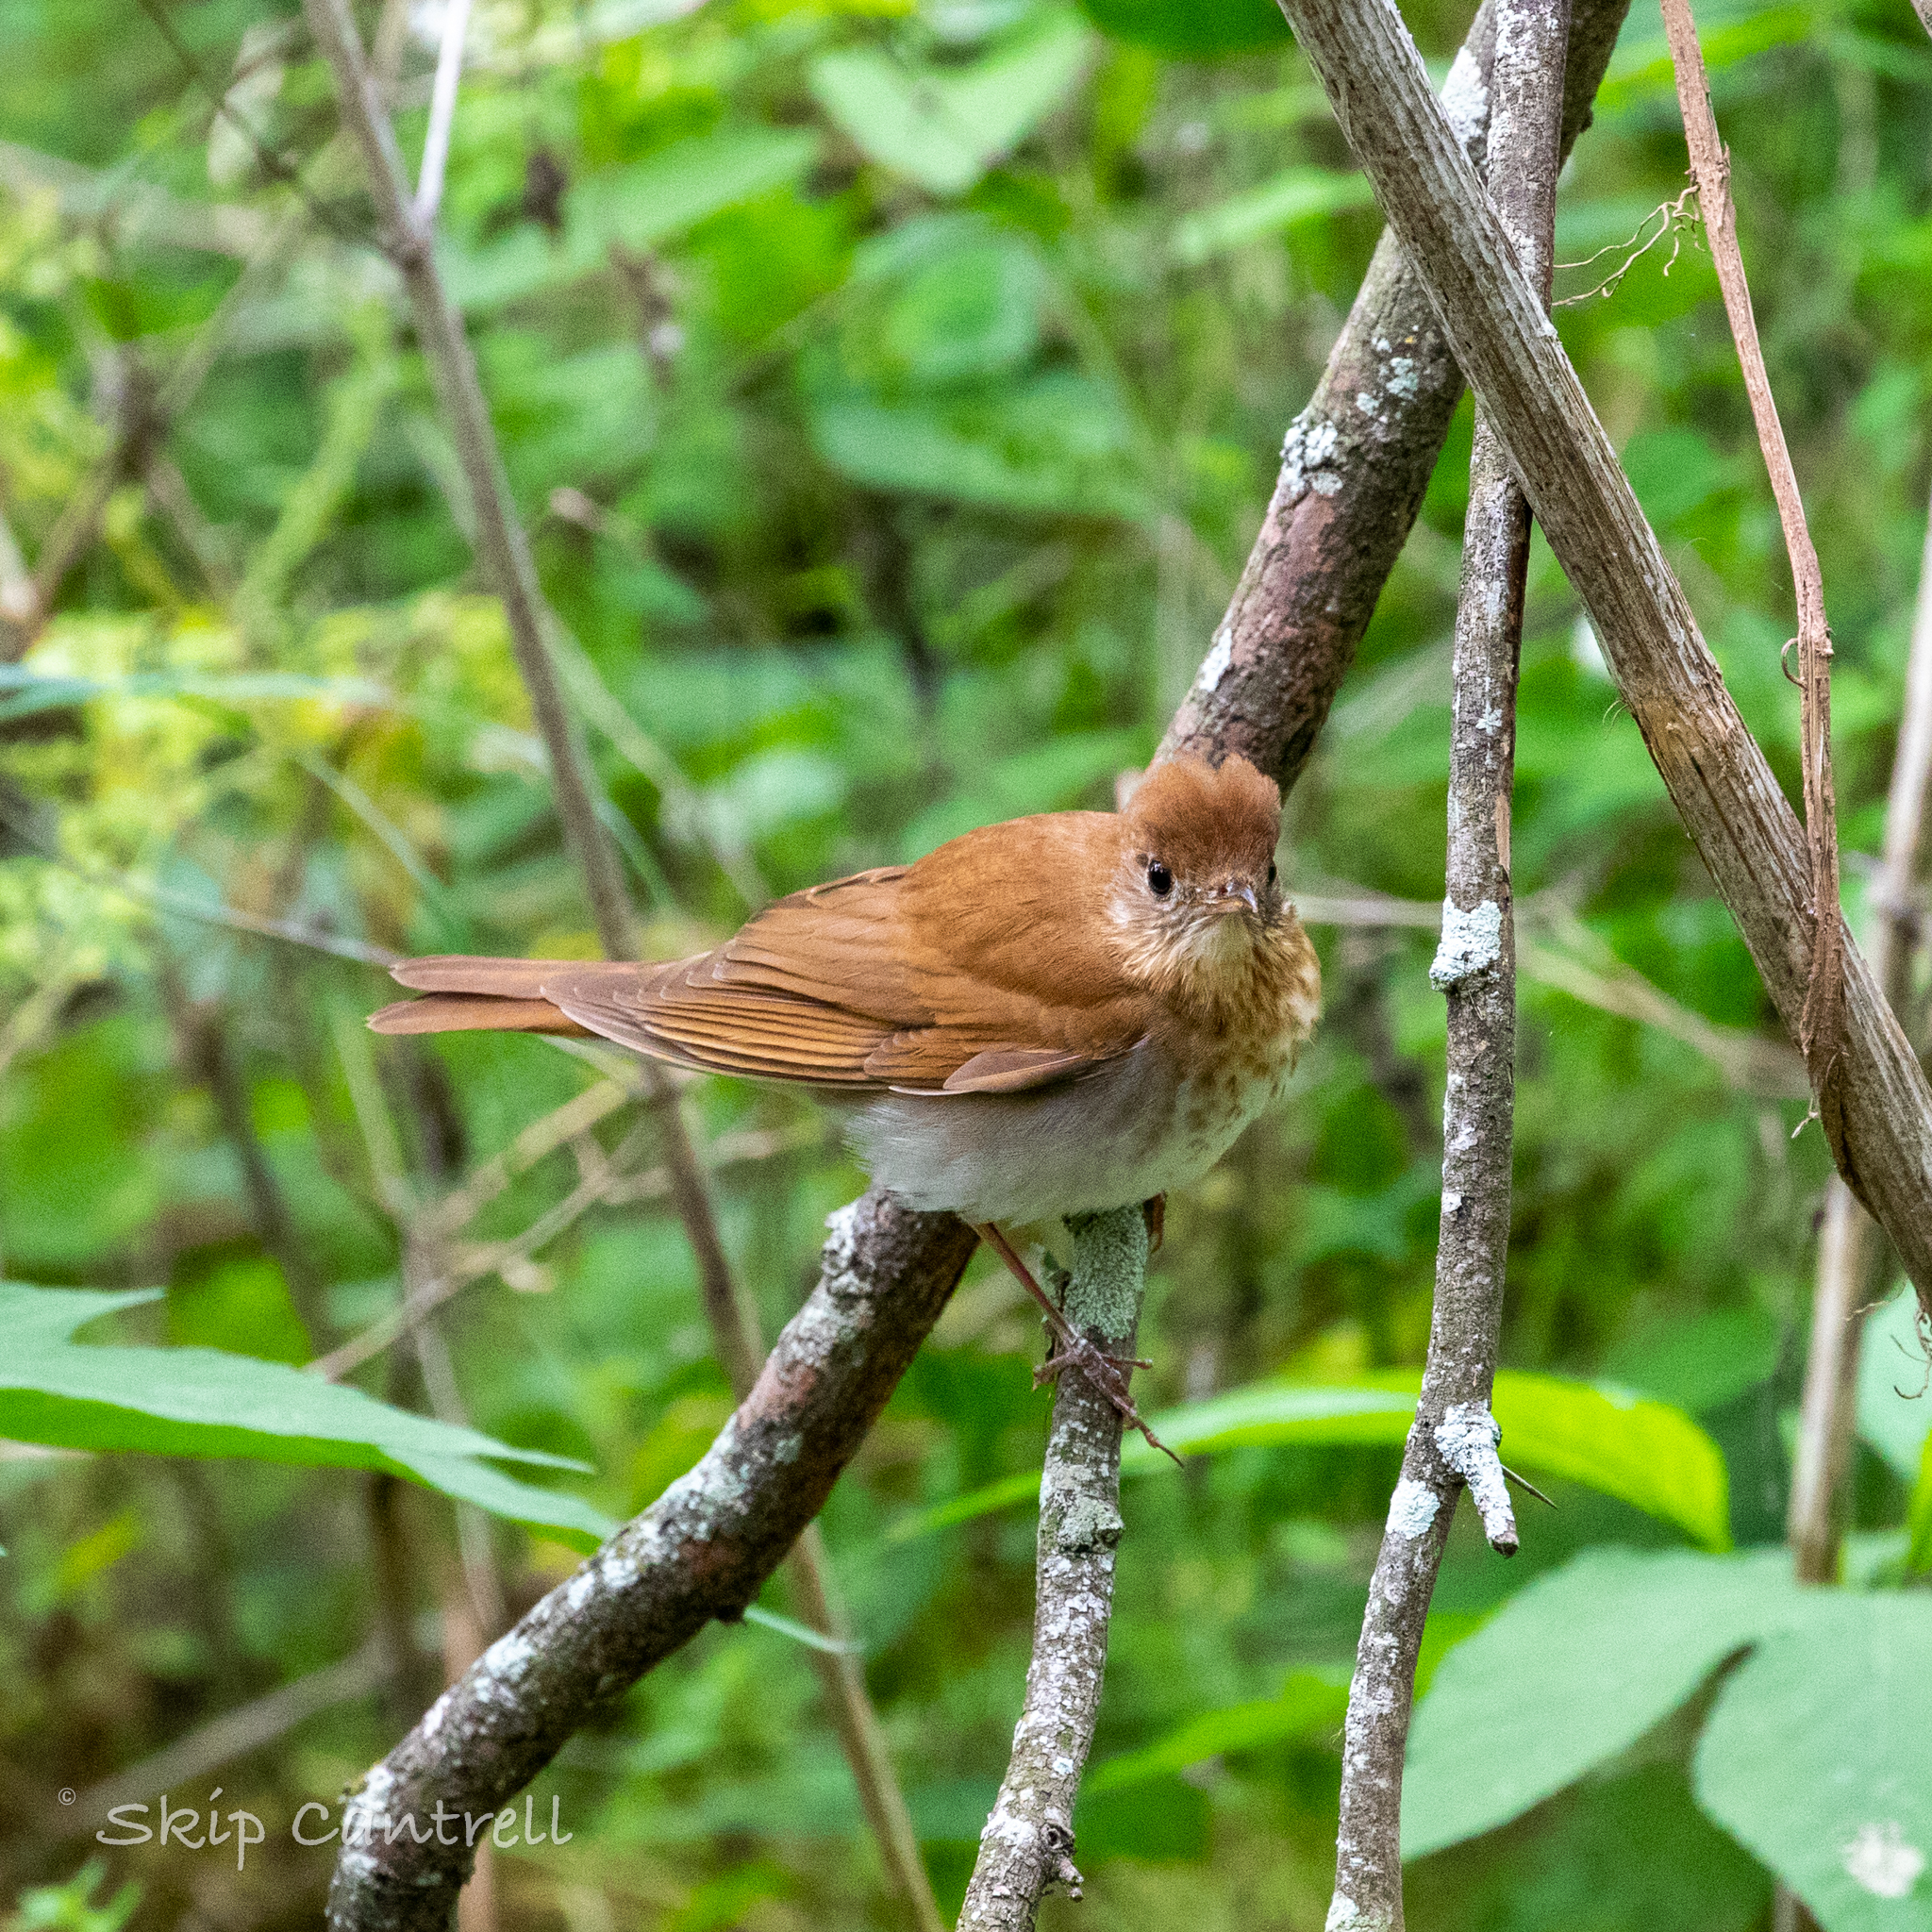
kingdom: Animalia
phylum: Chordata
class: Aves
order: Passeriformes
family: Turdidae
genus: Catharus
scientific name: Catharus fuscescens
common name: Veery
